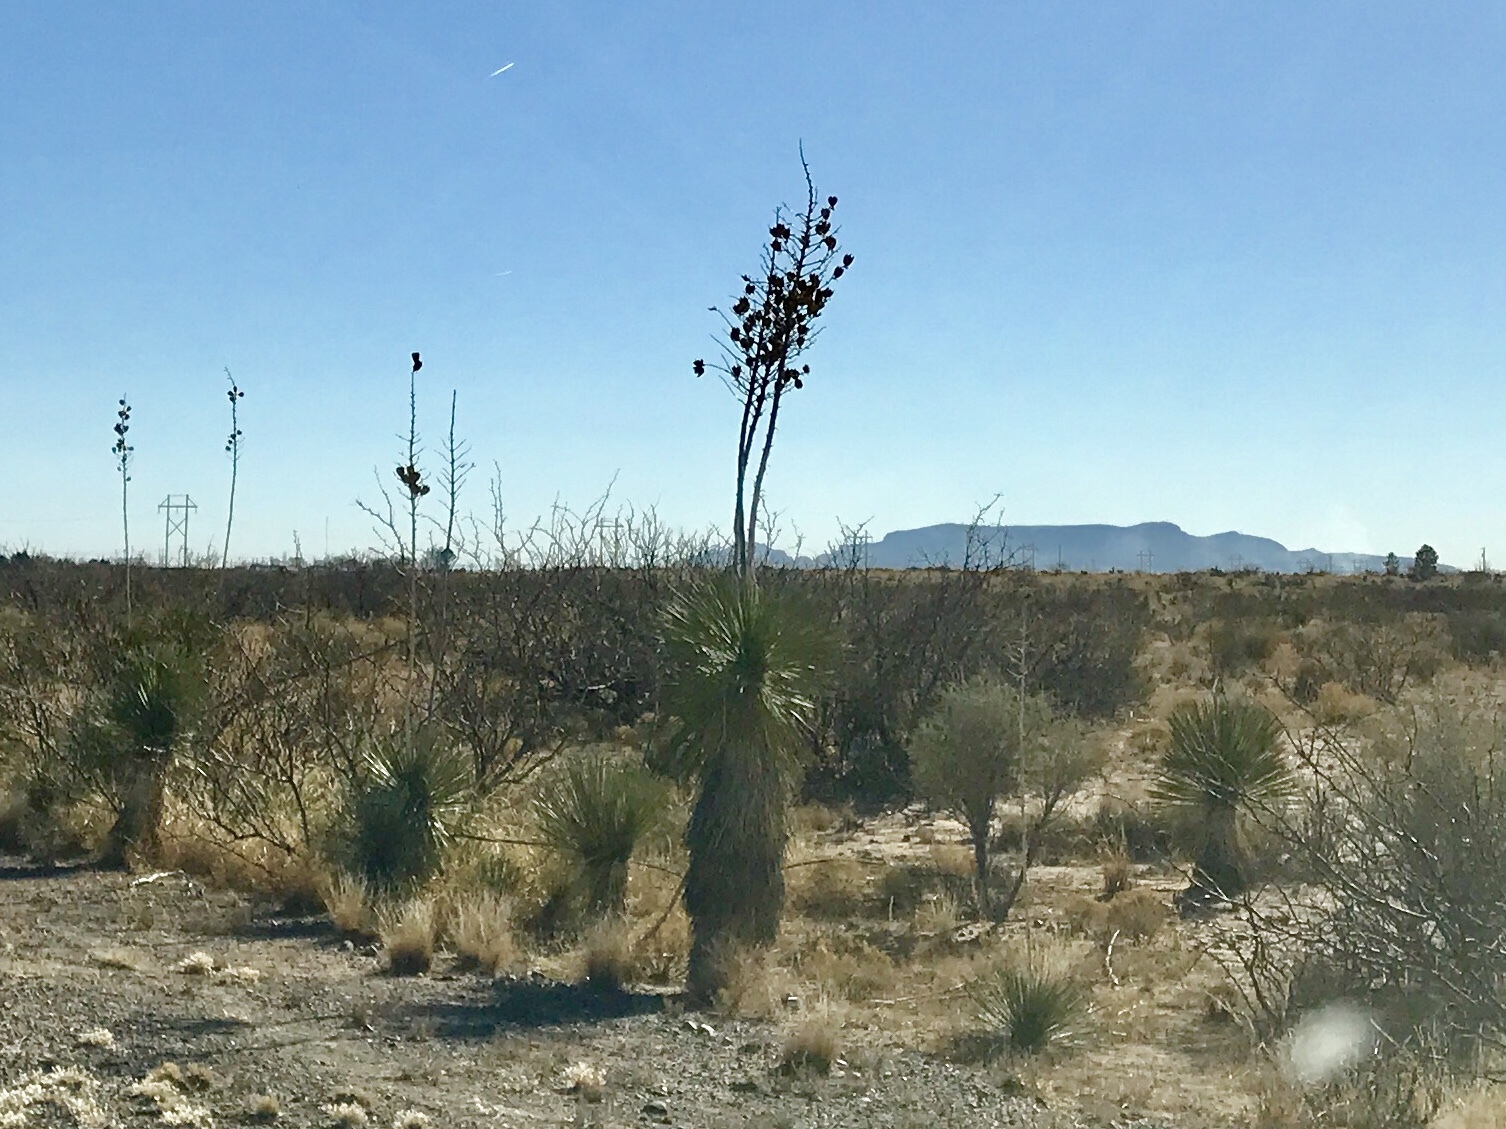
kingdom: Plantae
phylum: Tracheophyta
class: Liliopsida
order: Asparagales
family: Asparagaceae
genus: Yucca
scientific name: Yucca elata
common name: Palmella
